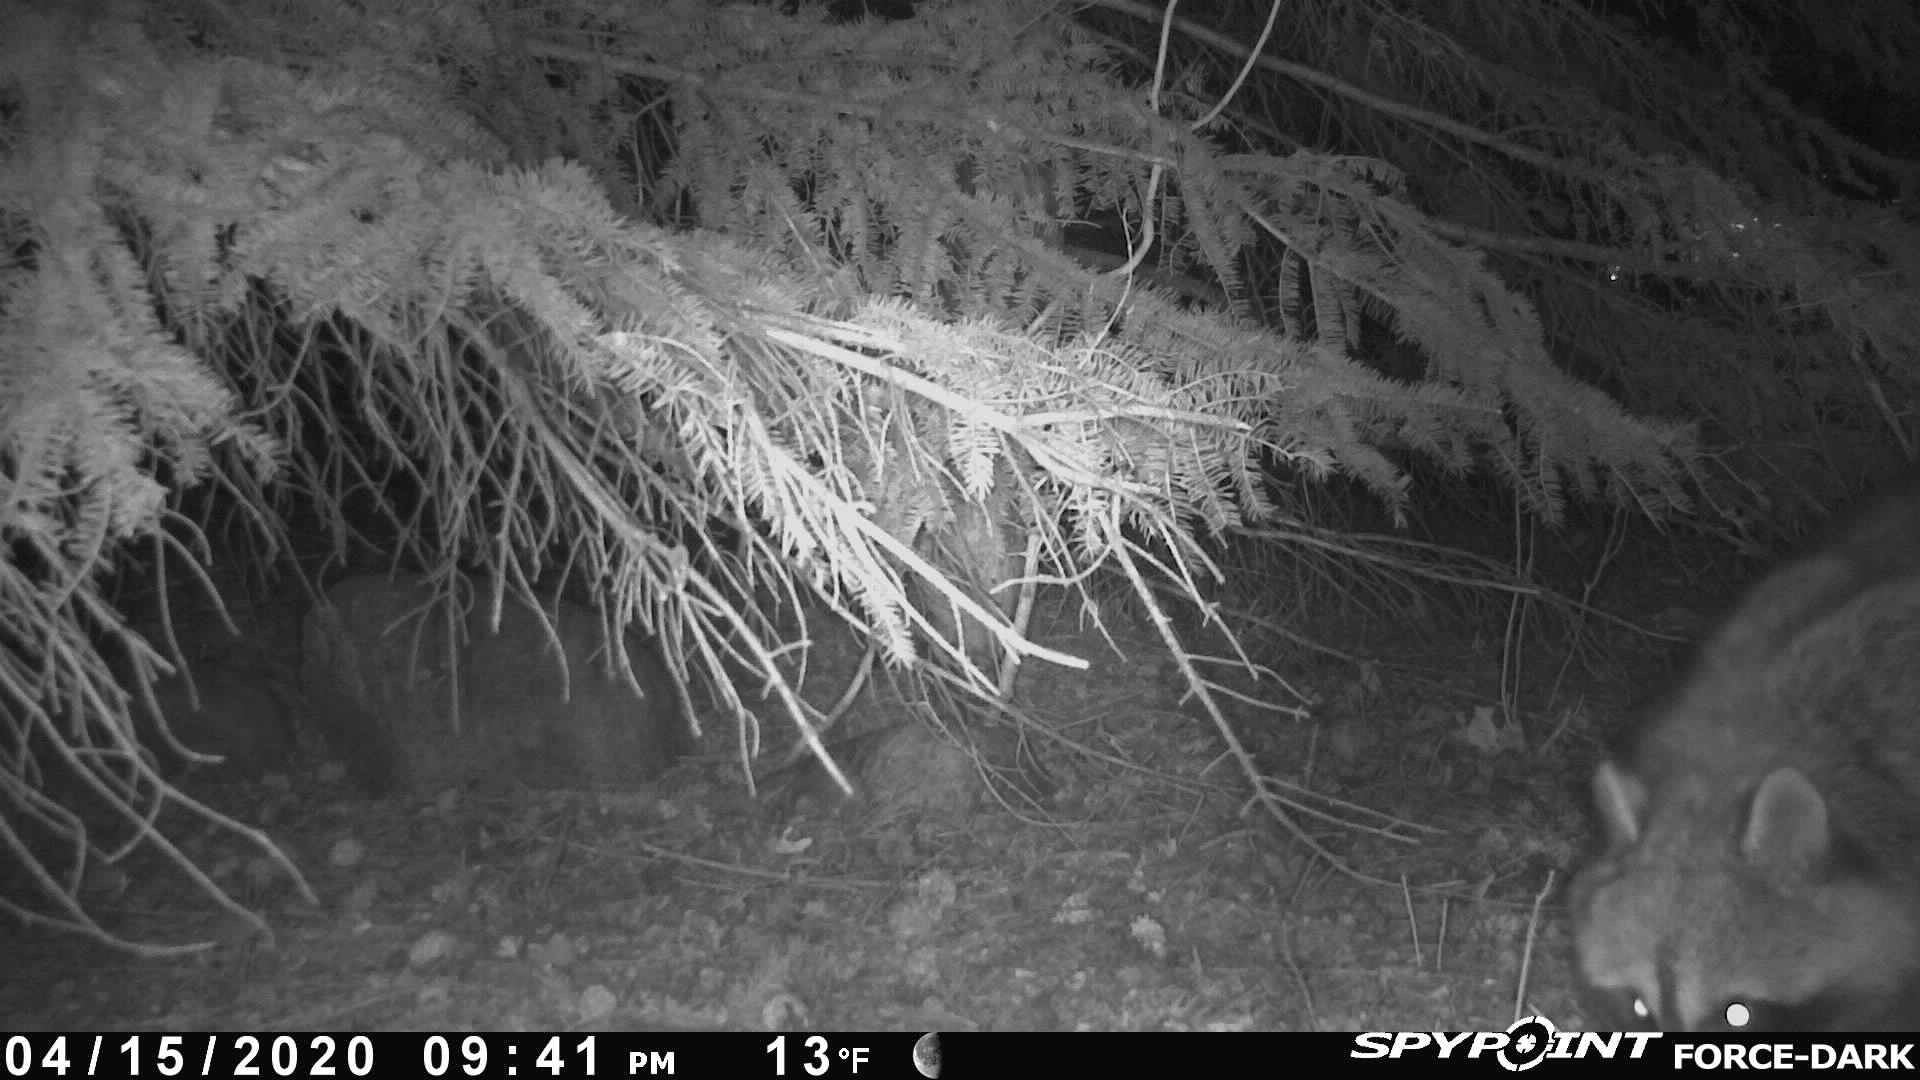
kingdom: Animalia
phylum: Chordata
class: Mammalia
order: Carnivora
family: Procyonidae
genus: Procyon
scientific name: Procyon lotor
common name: Raccoon
